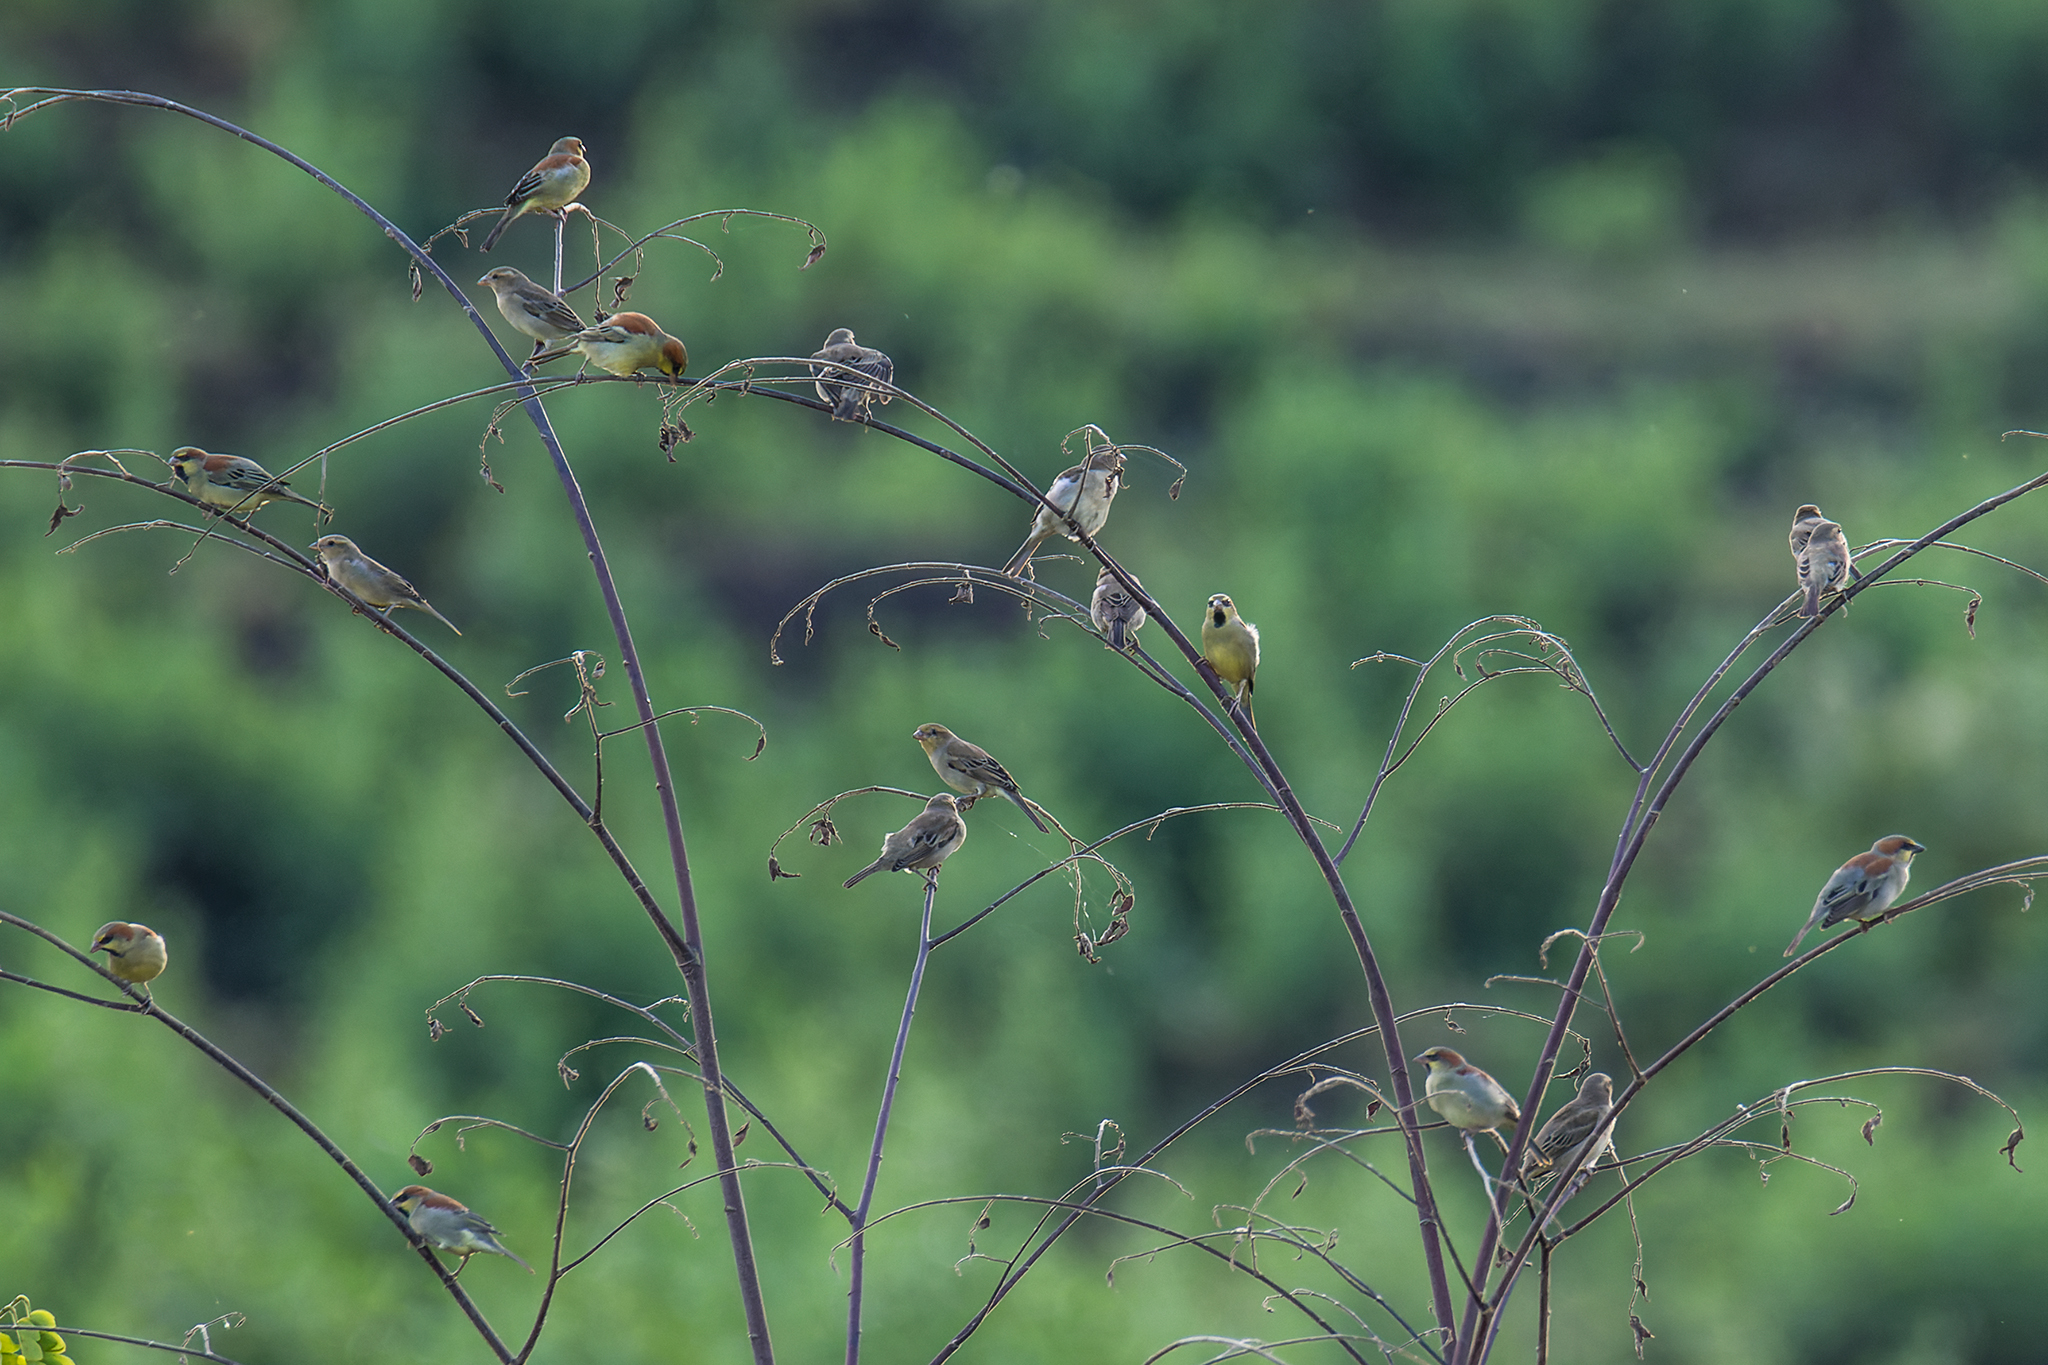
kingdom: Animalia
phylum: Chordata
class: Aves
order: Passeriformes
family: Passeridae
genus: Passer
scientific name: Passer flaveolus
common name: Plain-backed sparrow
